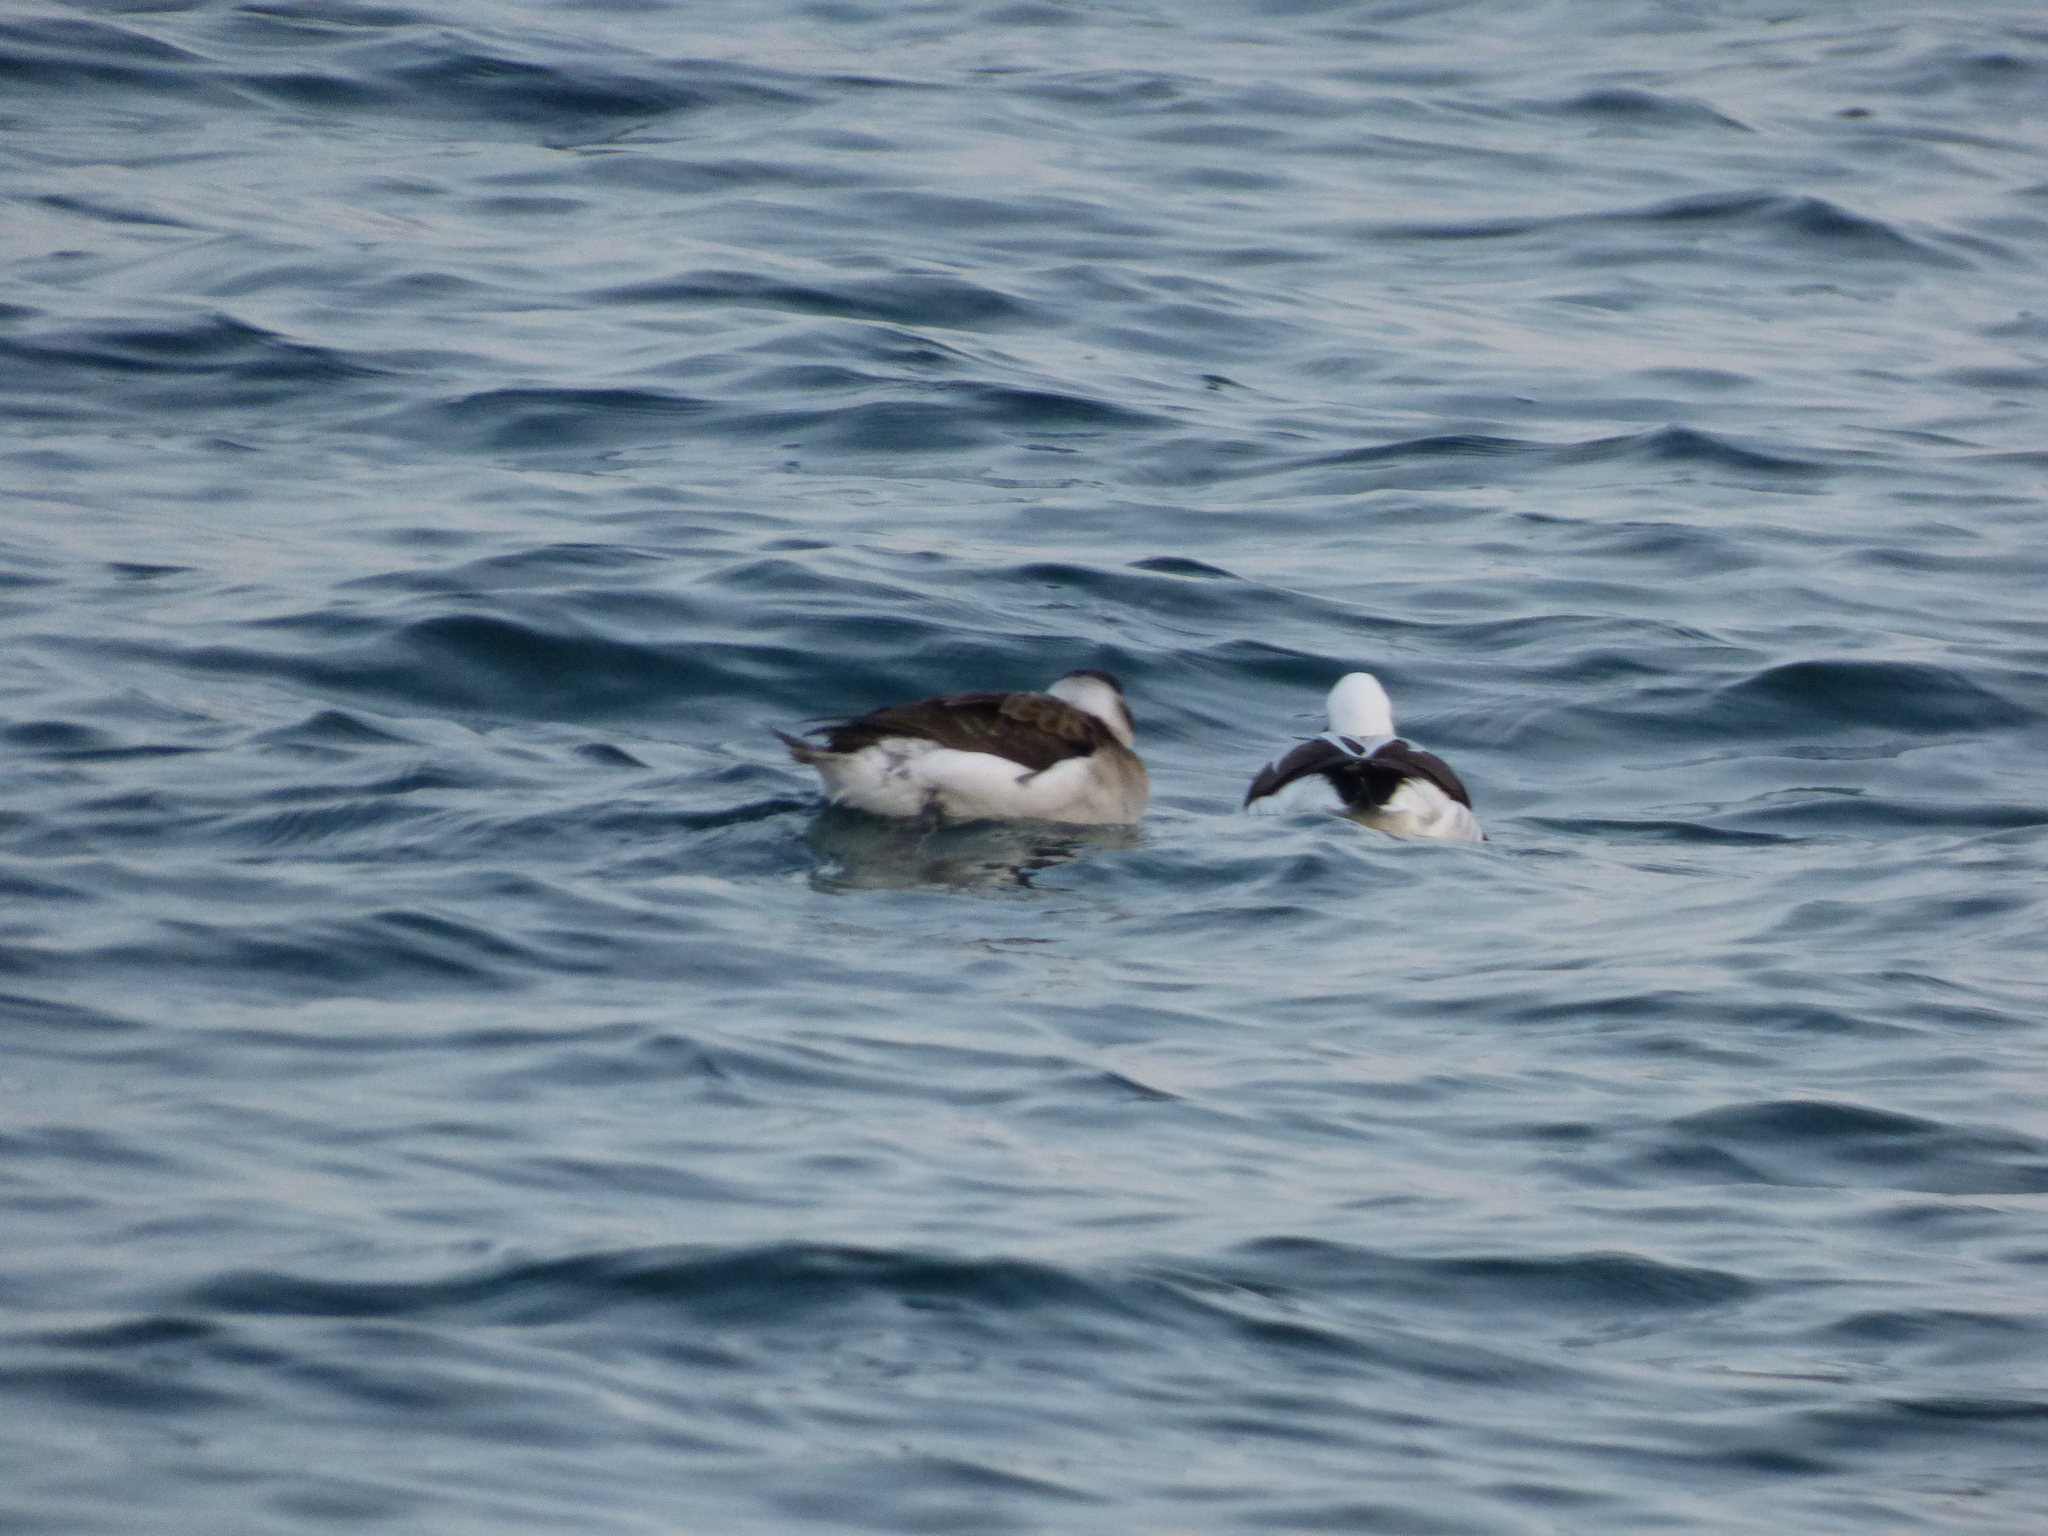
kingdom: Animalia
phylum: Chordata
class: Aves
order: Anseriformes
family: Anatidae
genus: Clangula
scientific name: Clangula hyemalis
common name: Long-tailed duck
